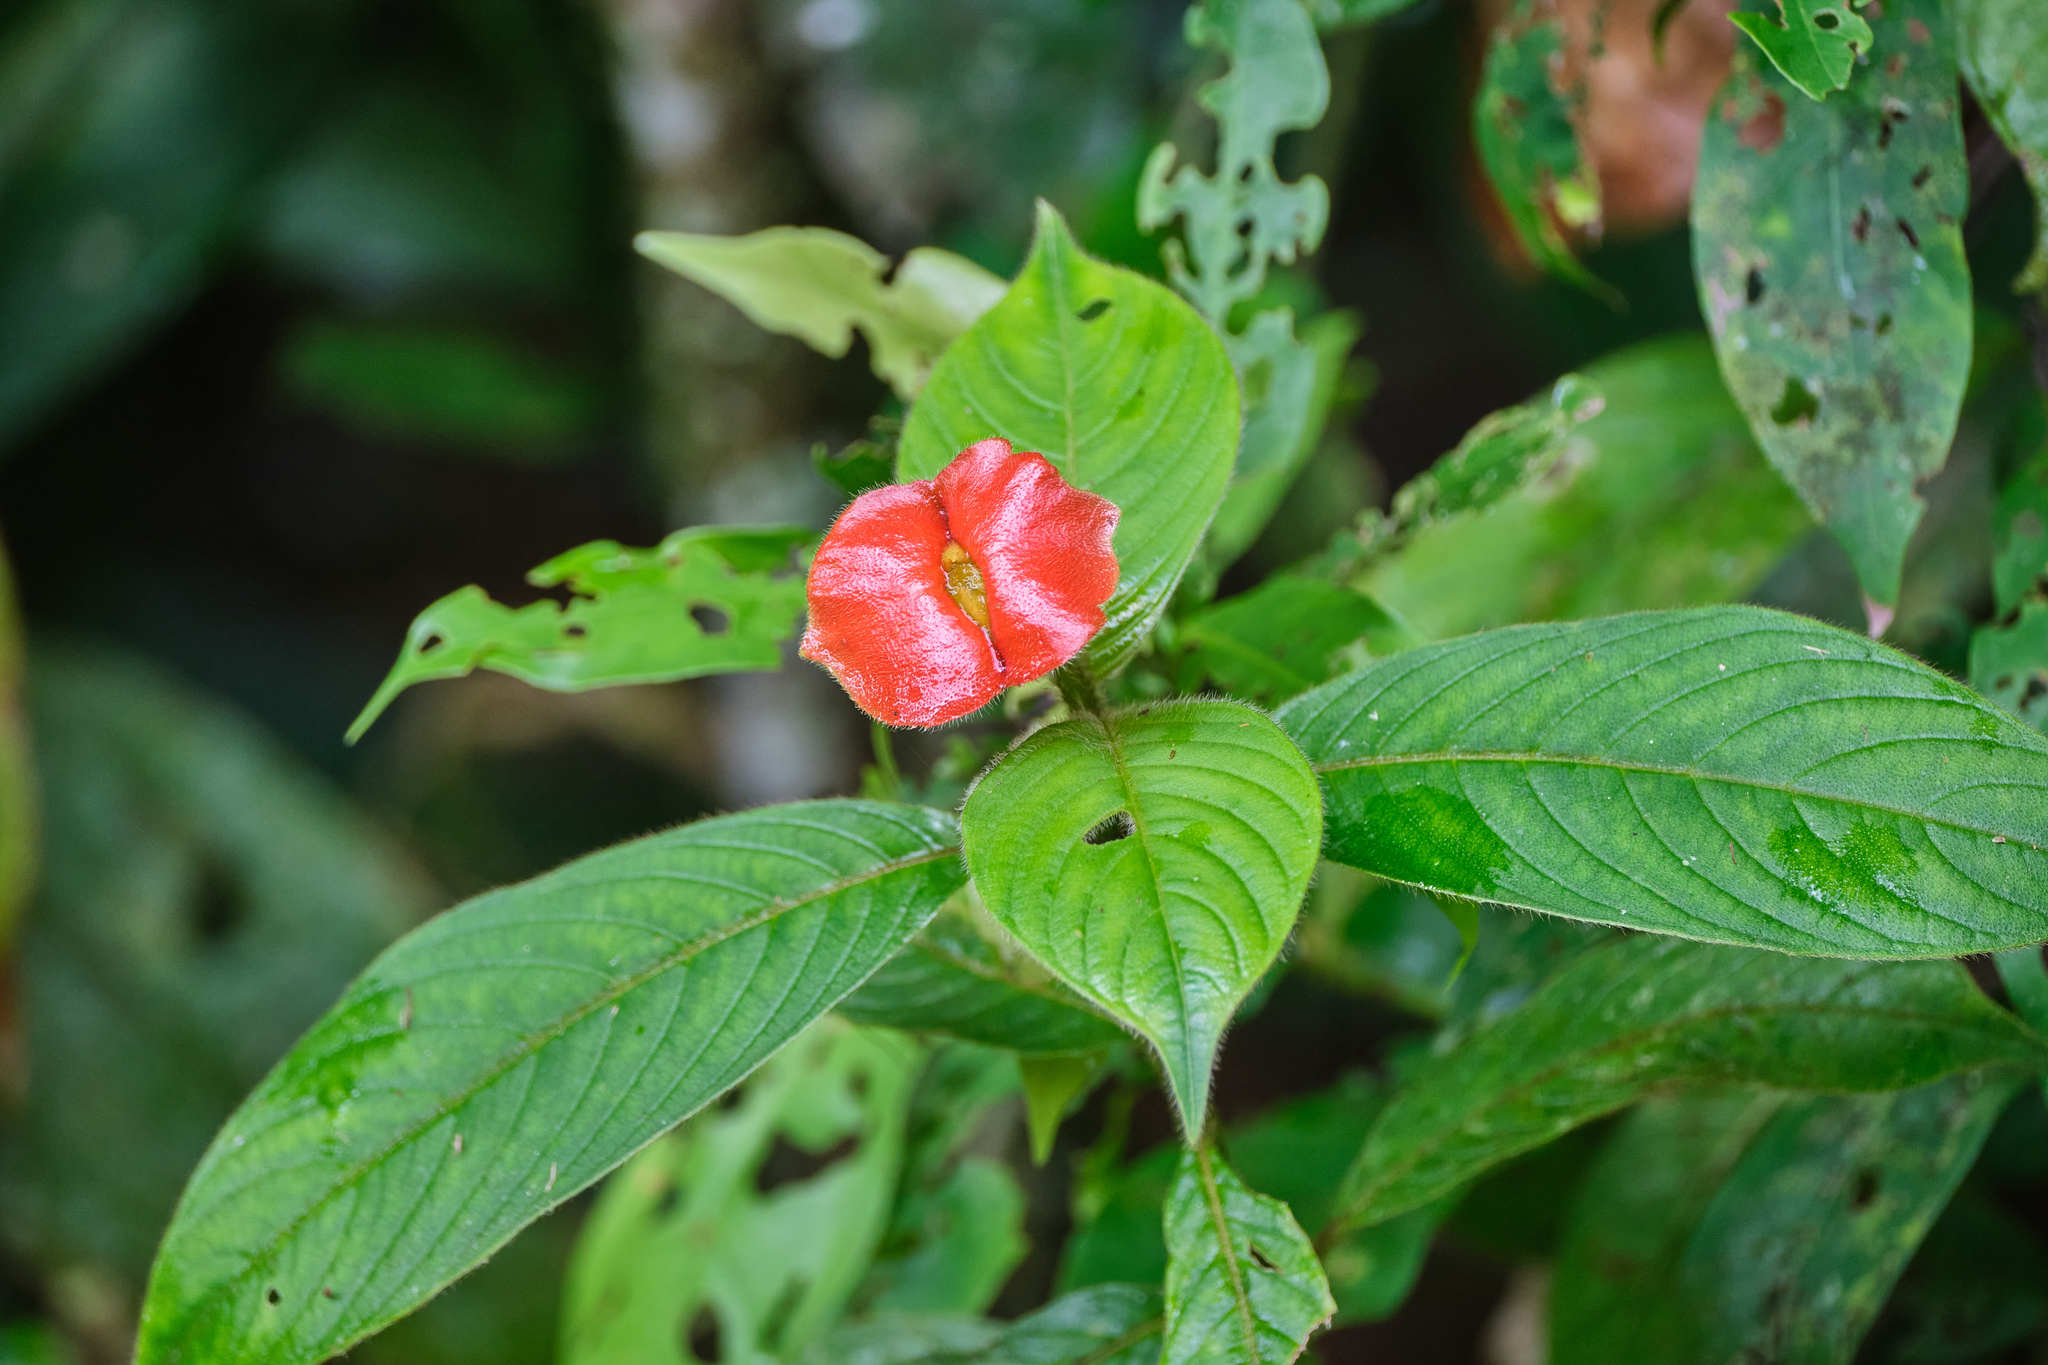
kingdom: Plantae
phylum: Tracheophyta
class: Magnoliopsida
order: Gentianales
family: Rubiaceae
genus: Palicourea
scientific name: Palicourea tomentosa
